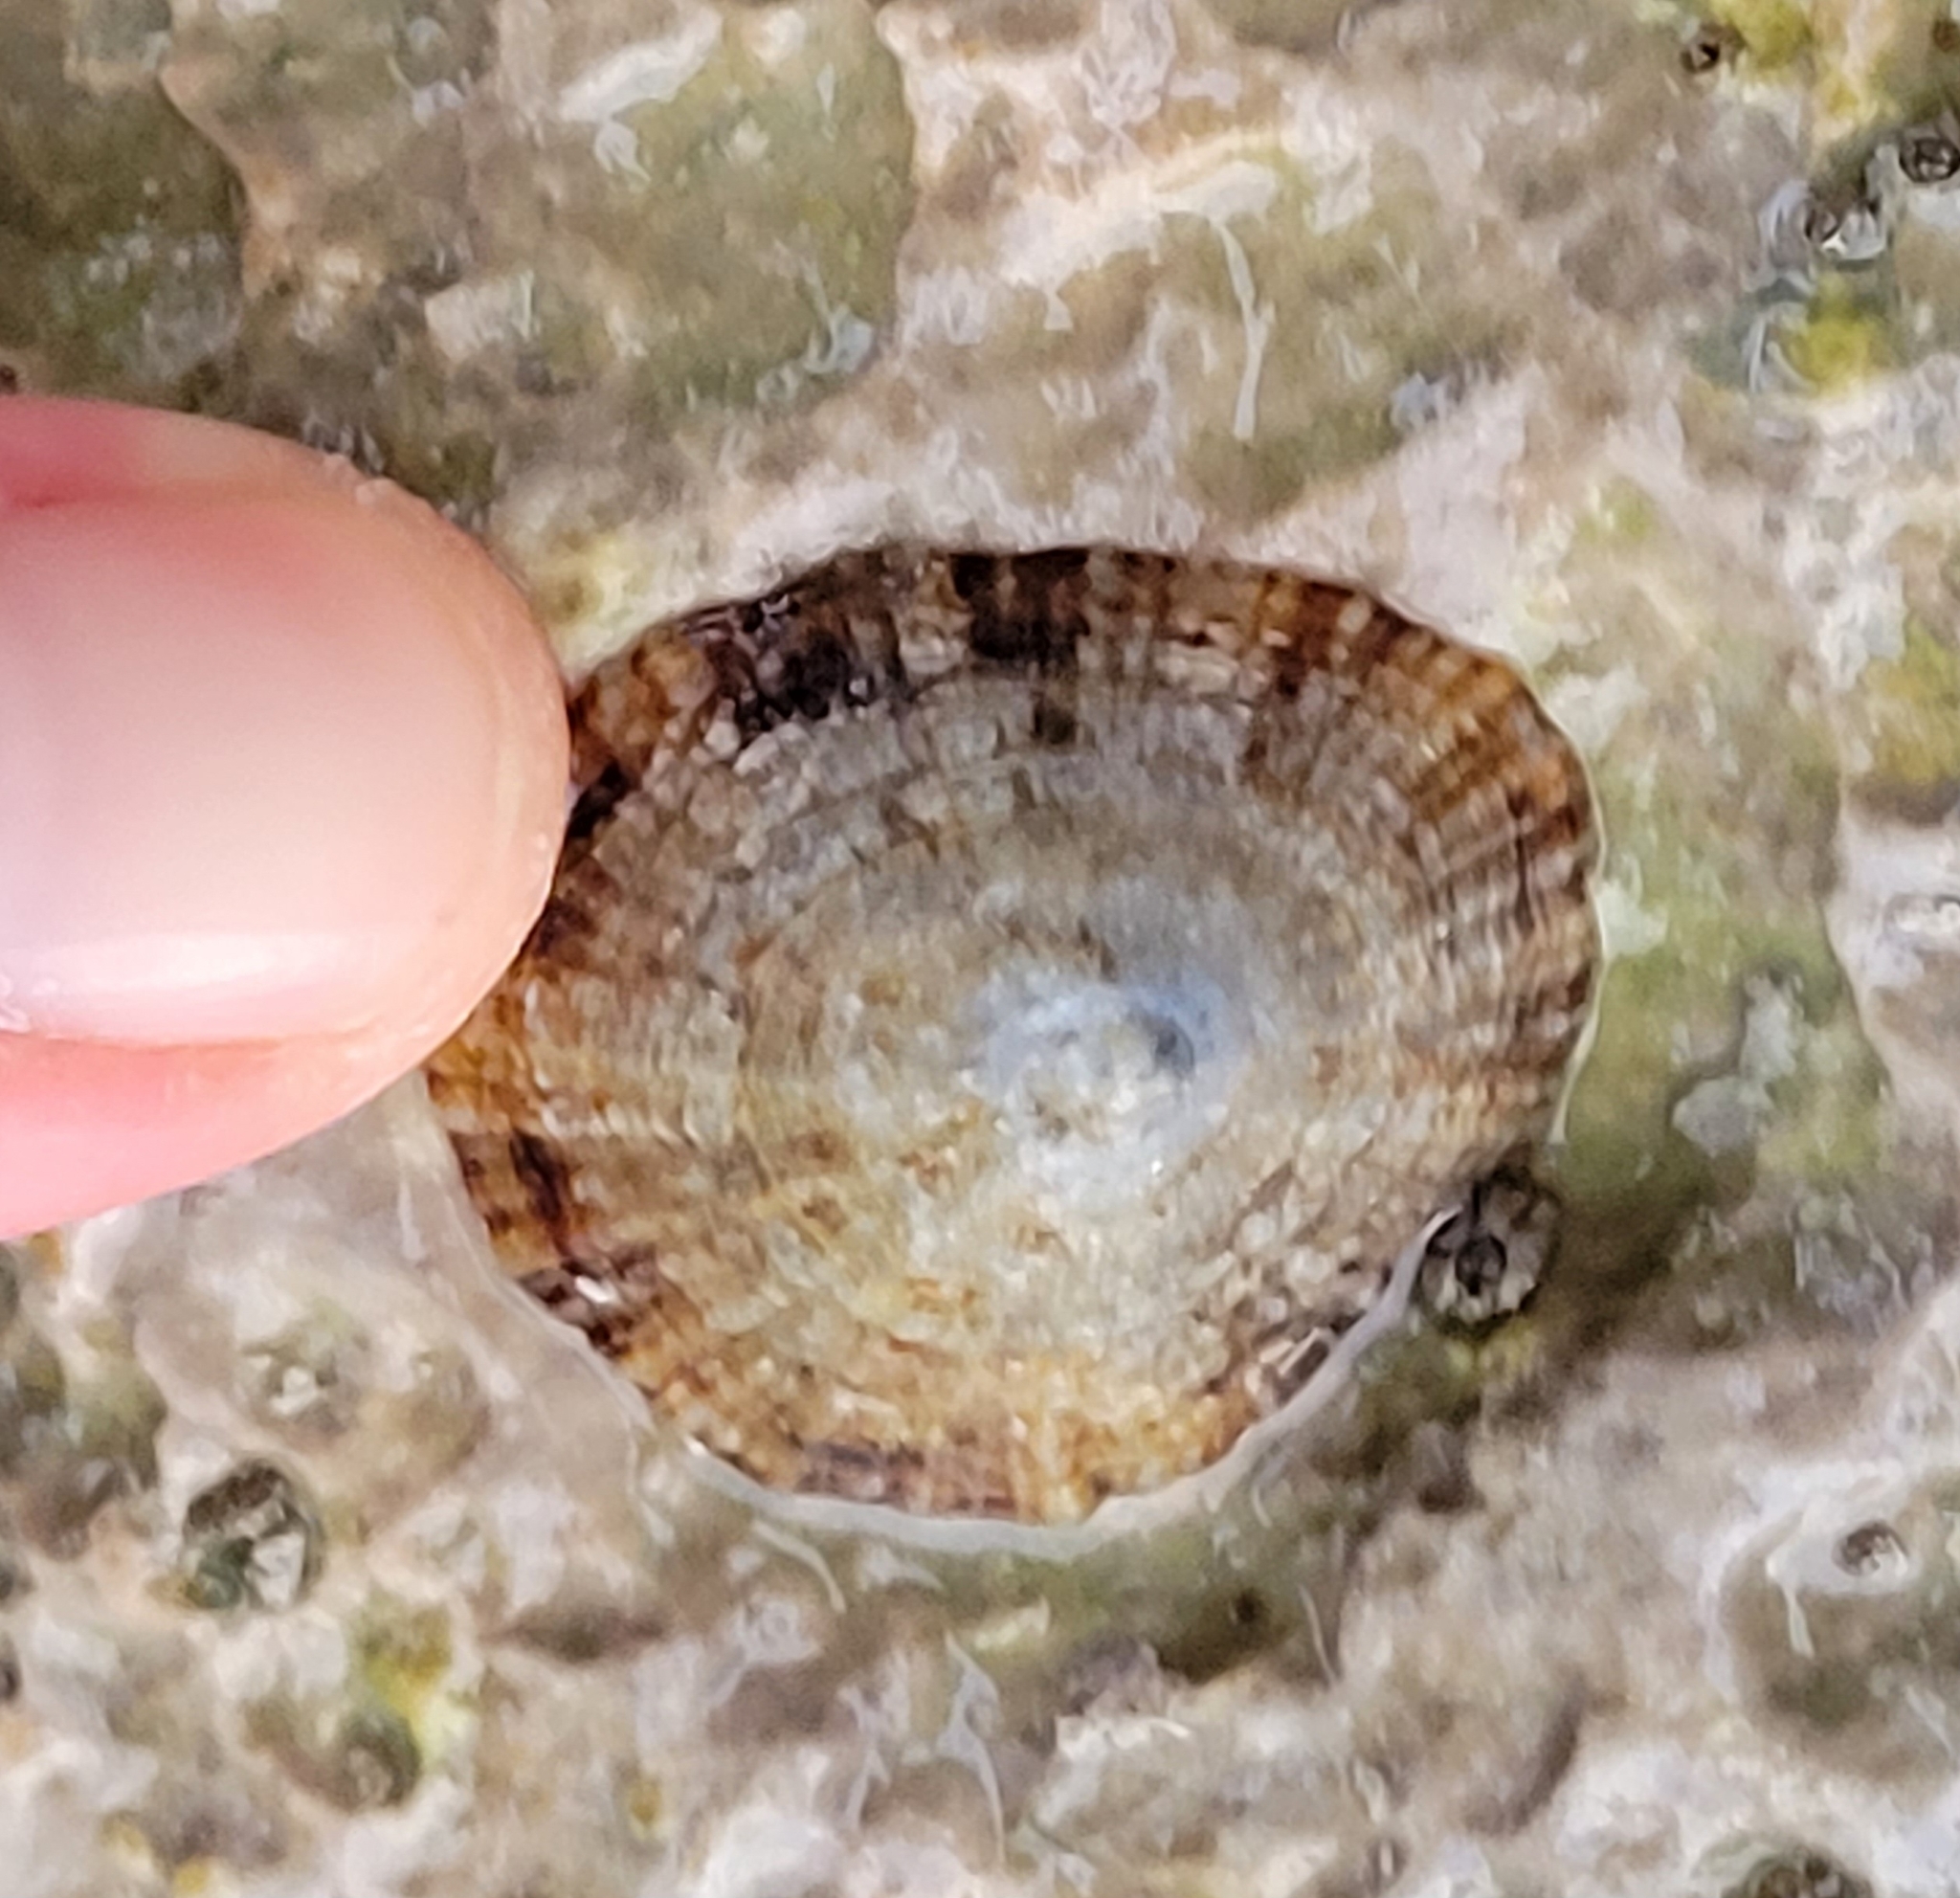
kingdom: Animalia
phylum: Mollusca
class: Gastropoda
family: Patellidae
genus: Patella
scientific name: Patella caerulea
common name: Mediterranean limpet
